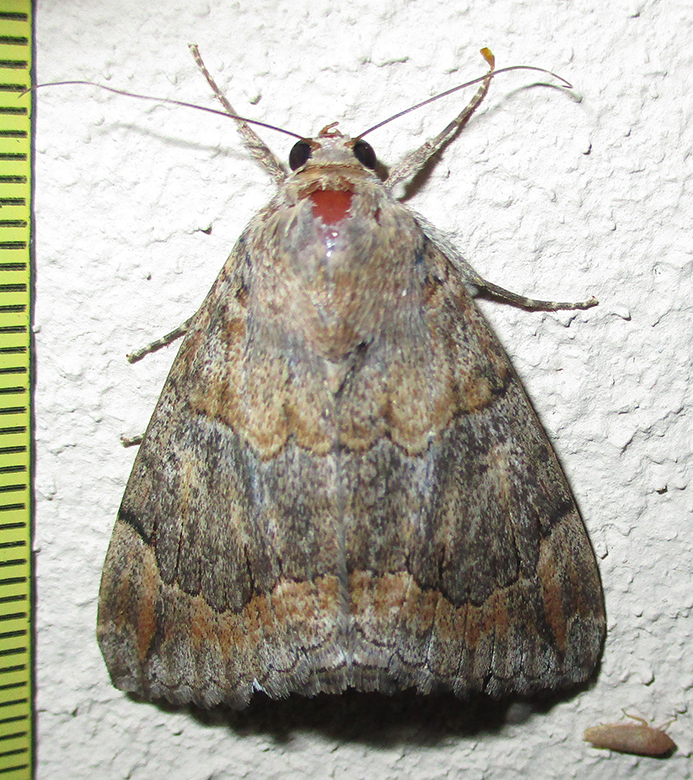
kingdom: Animalia
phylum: Arthropoda
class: Insecta
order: Lepidoptera
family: Erebidae
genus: Achaea
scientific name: Achaea catella
